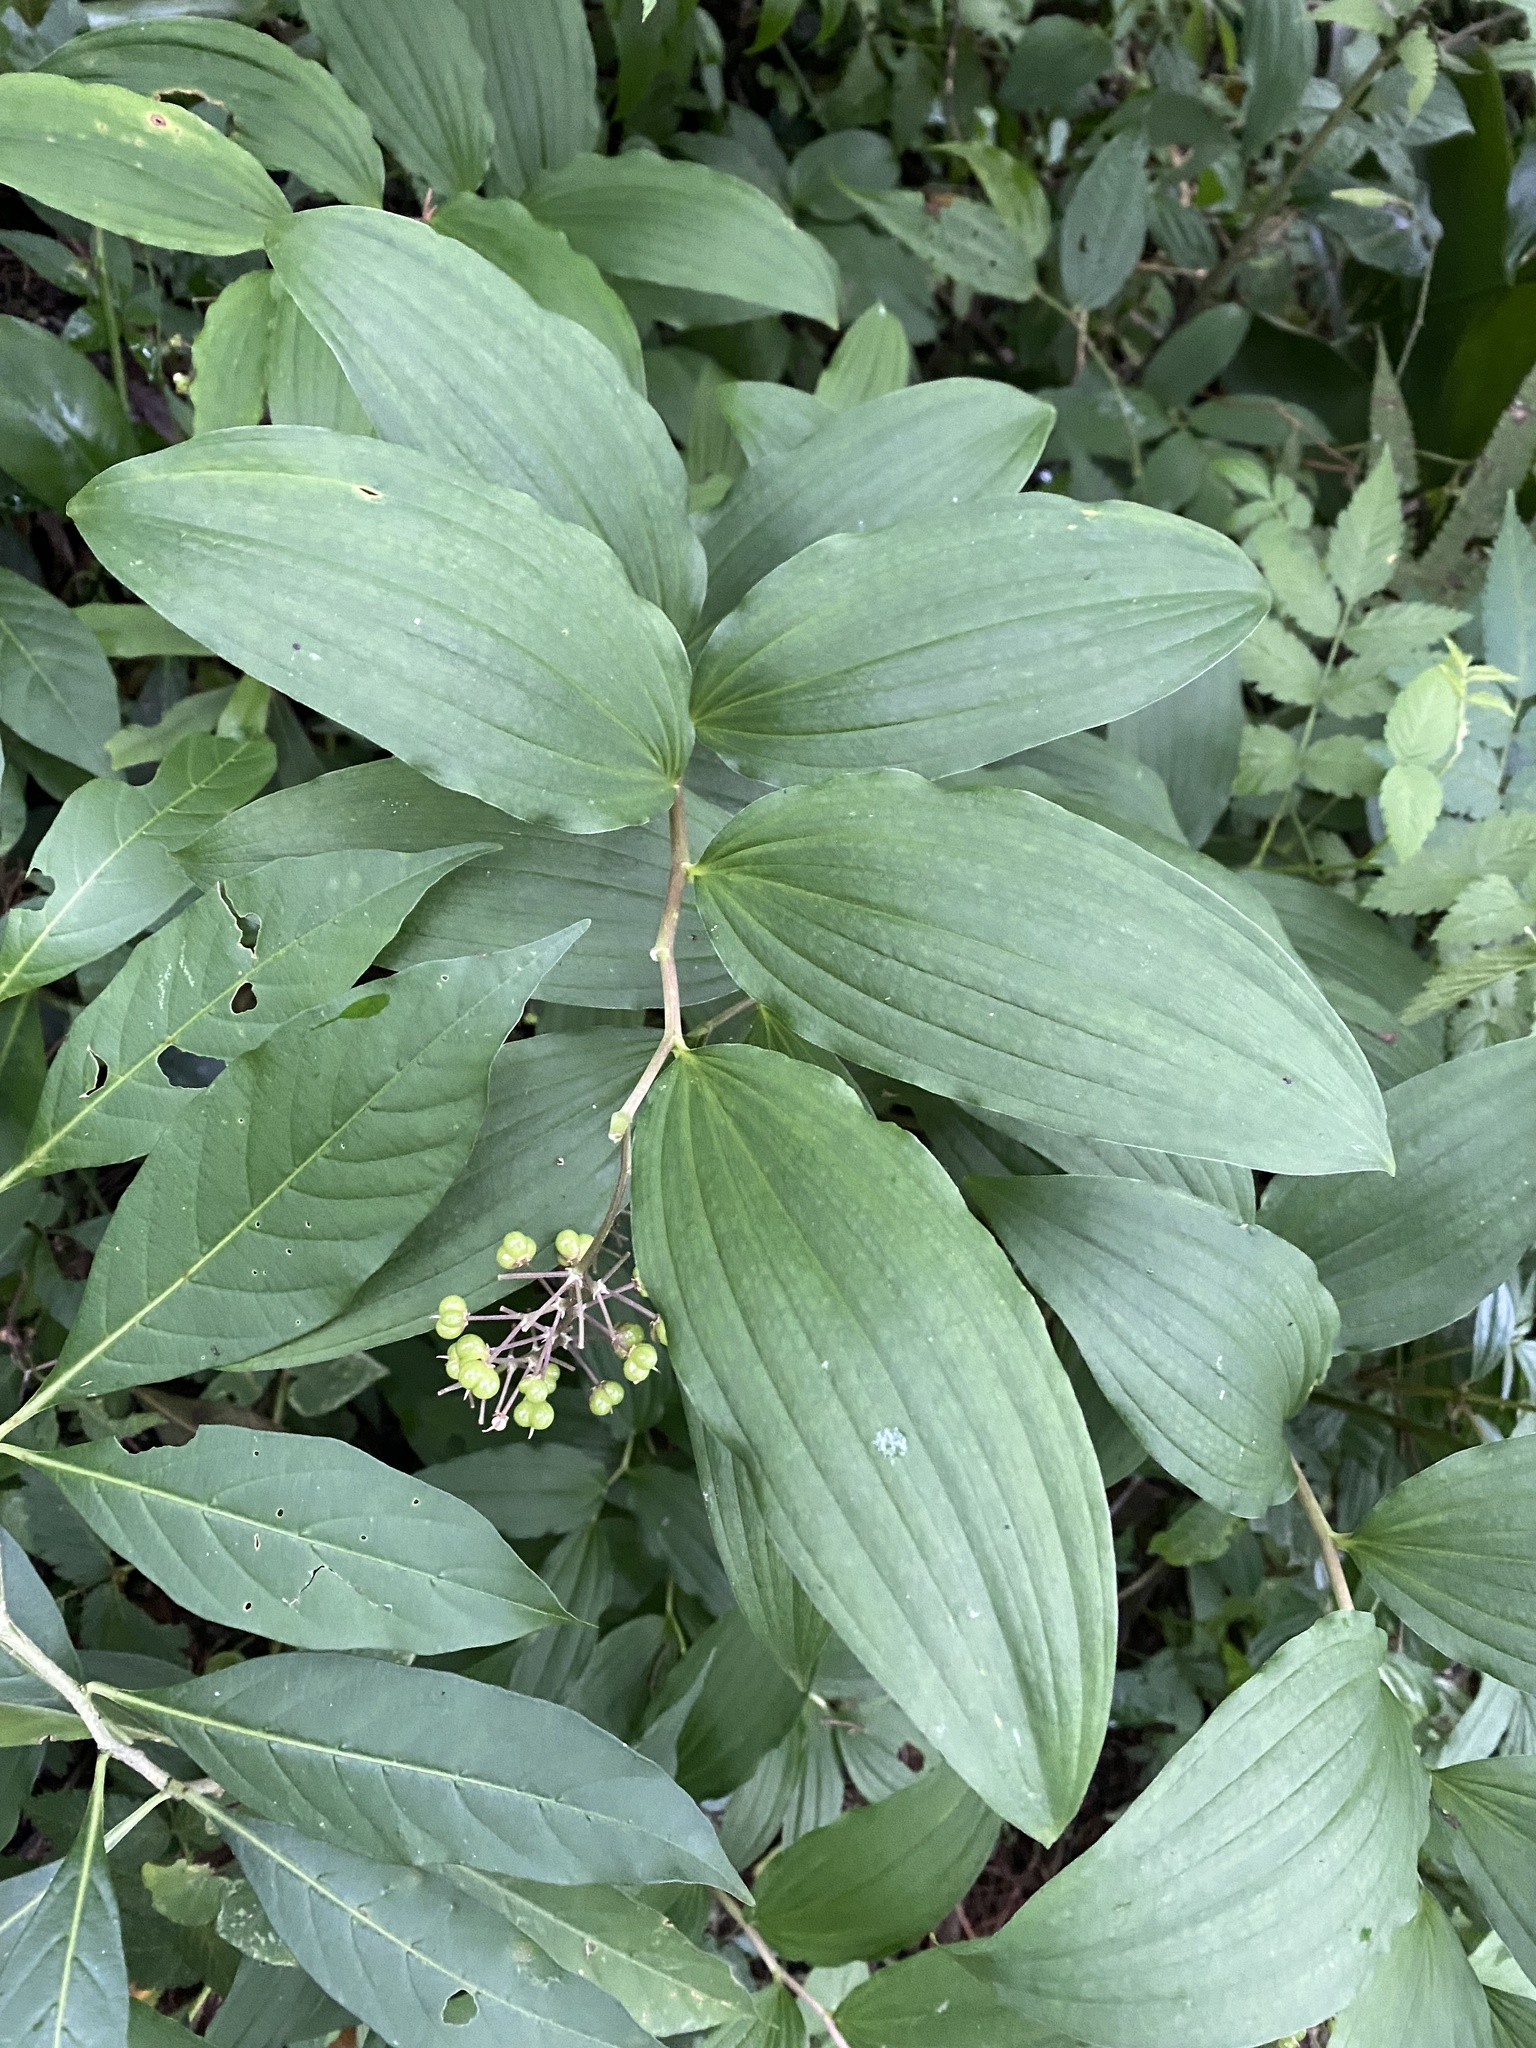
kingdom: Plantae
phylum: Tracheophyta
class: Liliopsida
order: Asparagales
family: Asparagaceae
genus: Maianthemum
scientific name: Maianthemum flexuosum
